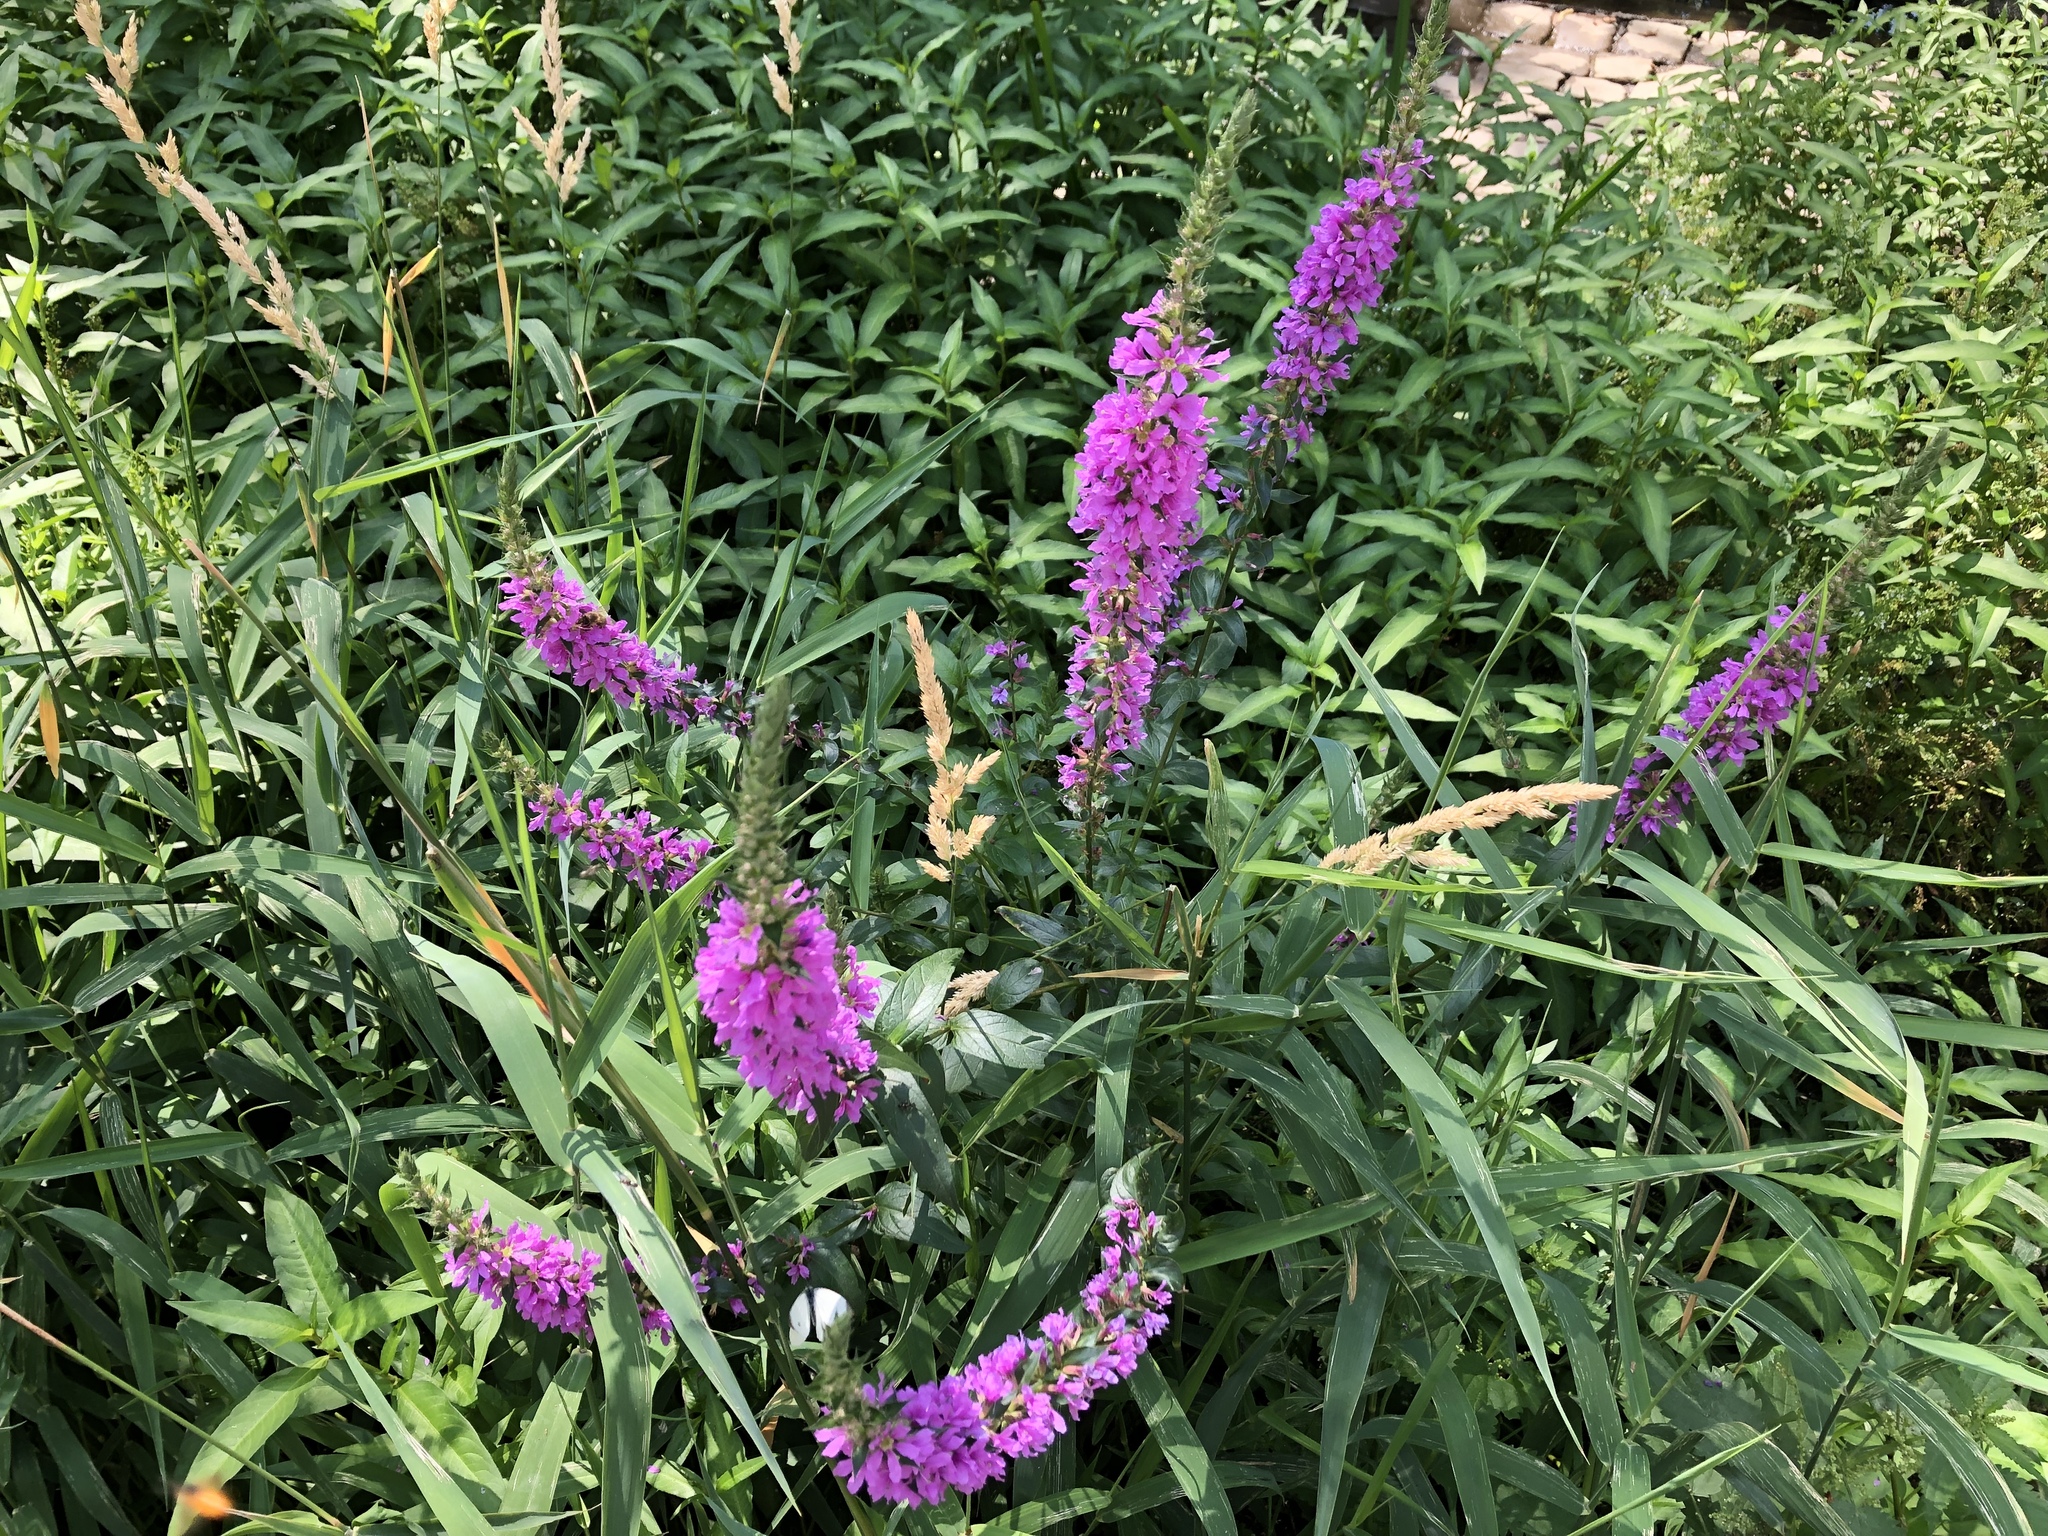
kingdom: Plantae
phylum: Tracheophyta
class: Magnoliopsida
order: Myrtales
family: Lythraceae
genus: Lythrum
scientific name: Lythrum salicaria
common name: Purple loosestrife
